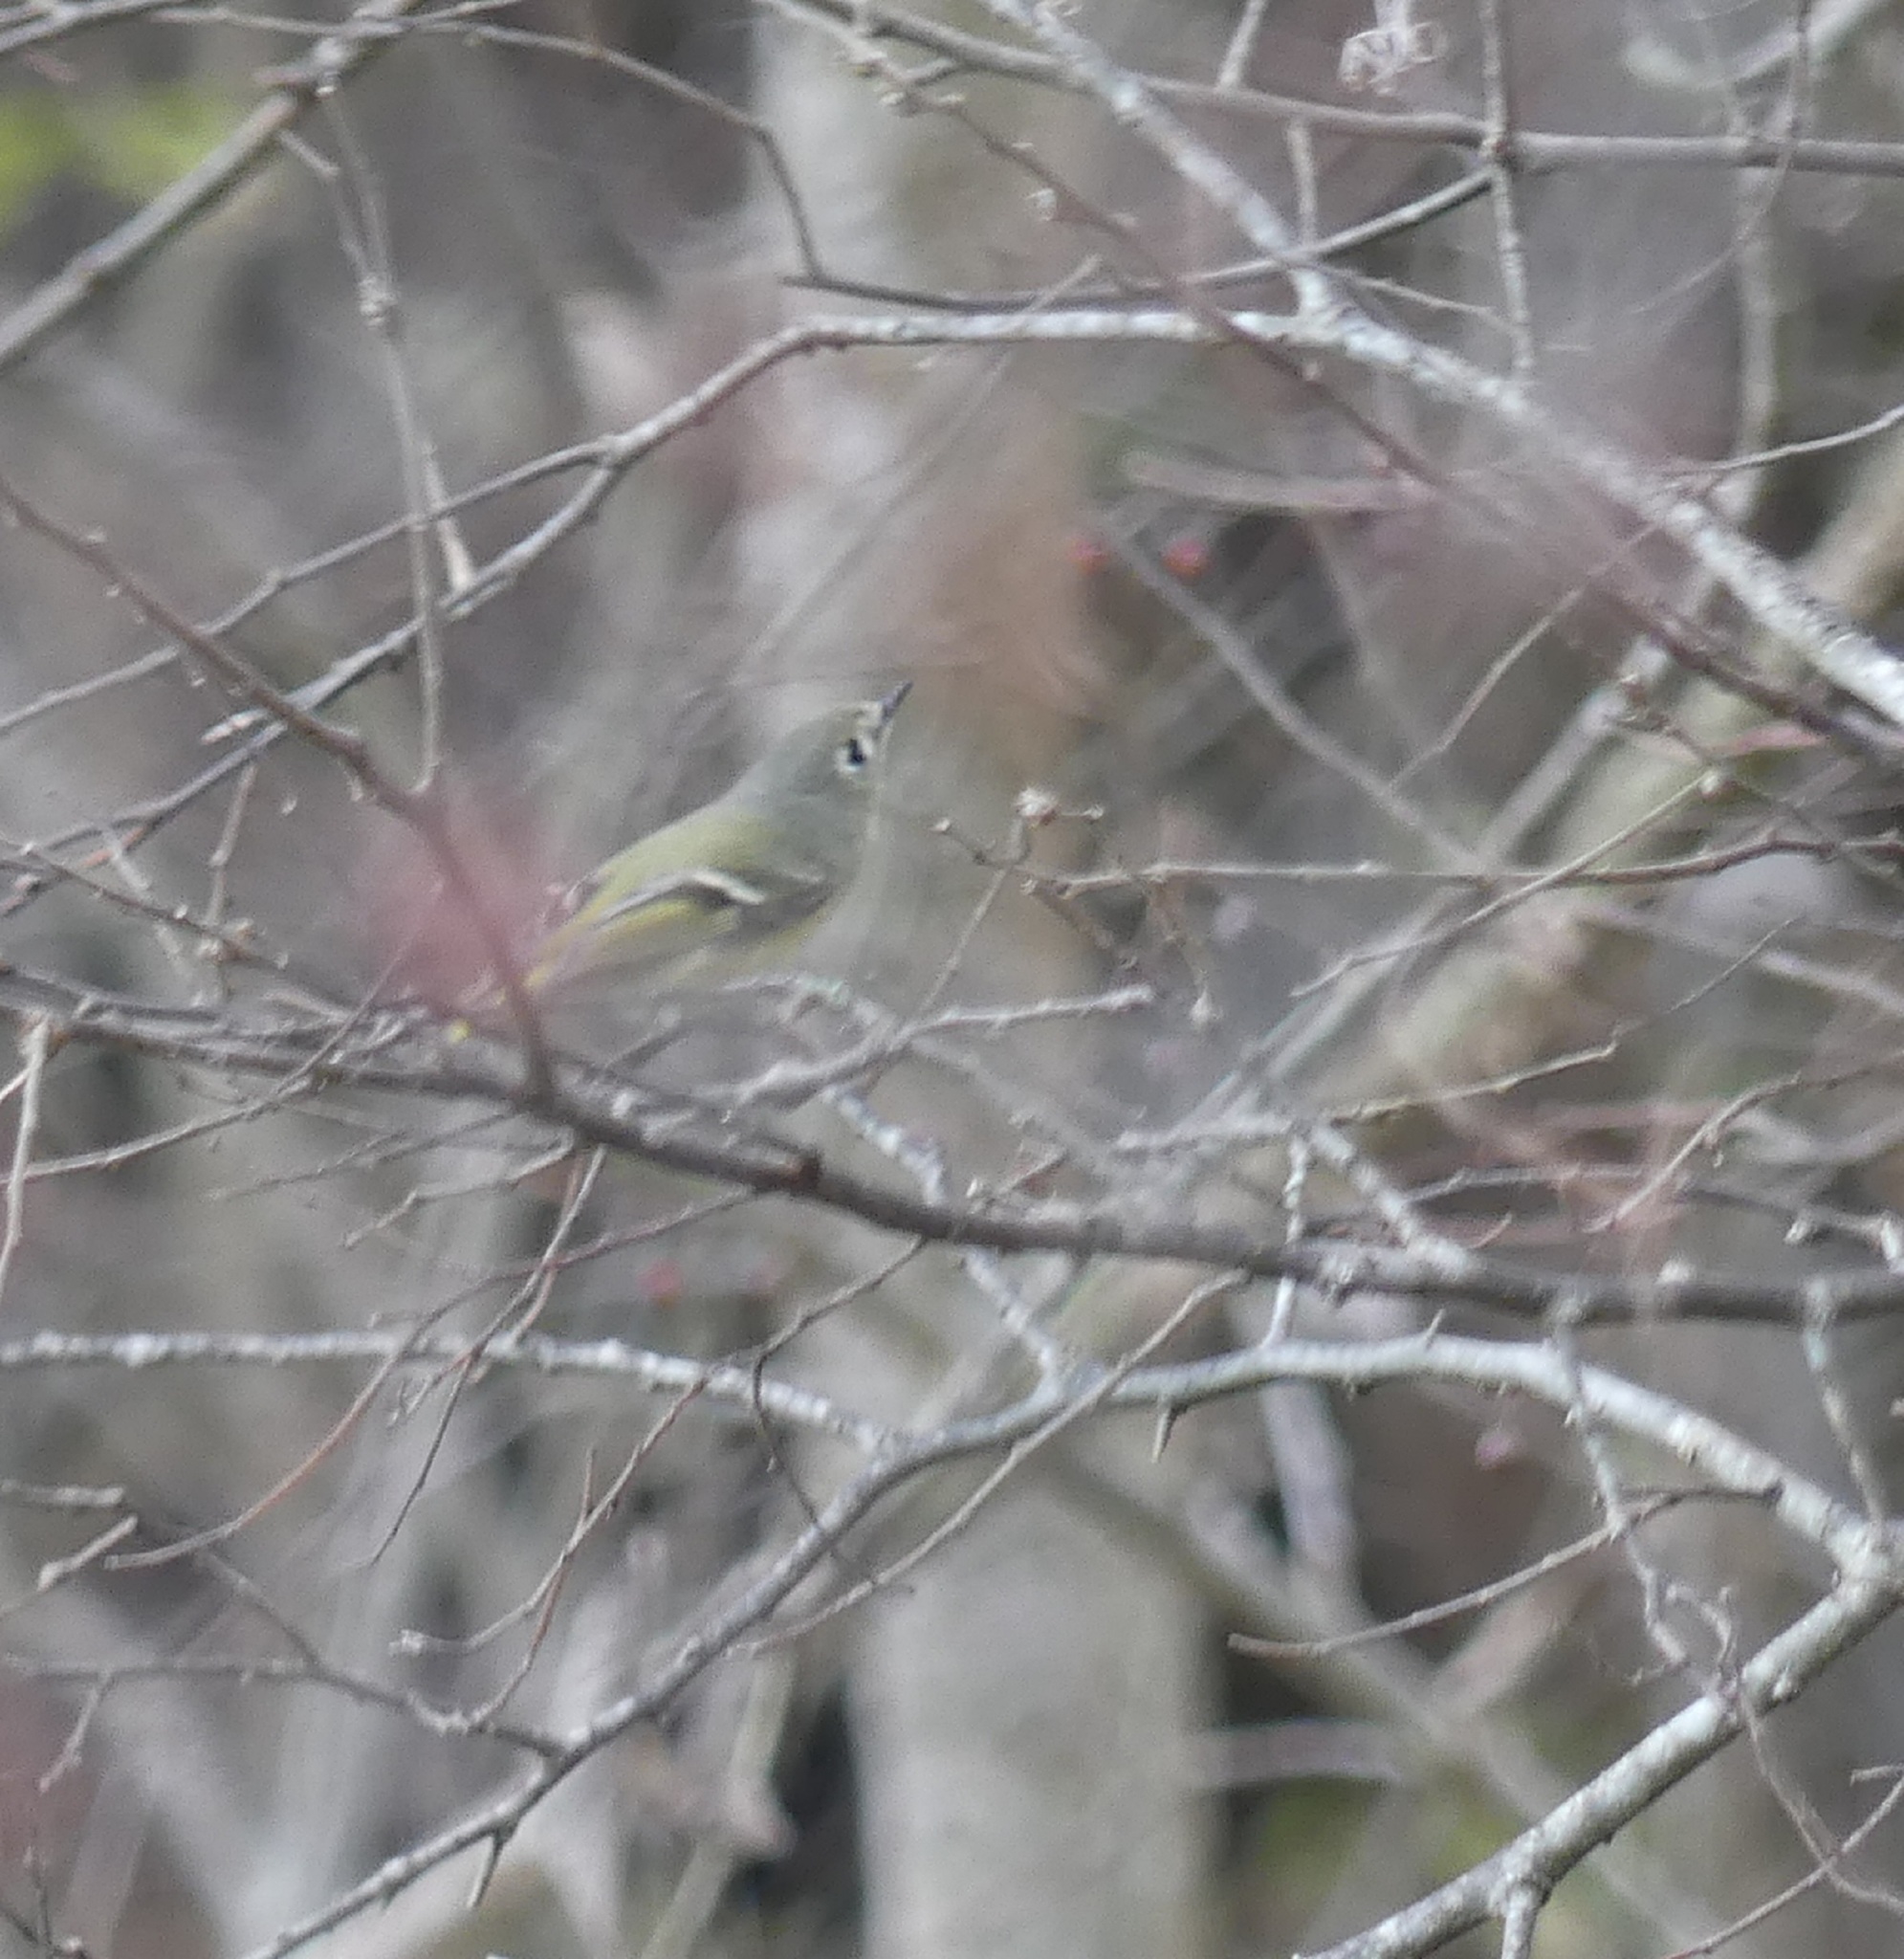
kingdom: Animalia
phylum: Chordata
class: Aves
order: Passeriformes
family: Regulidae
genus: Regulus
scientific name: Regulus calendula
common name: Ruby-crowned kinglet
